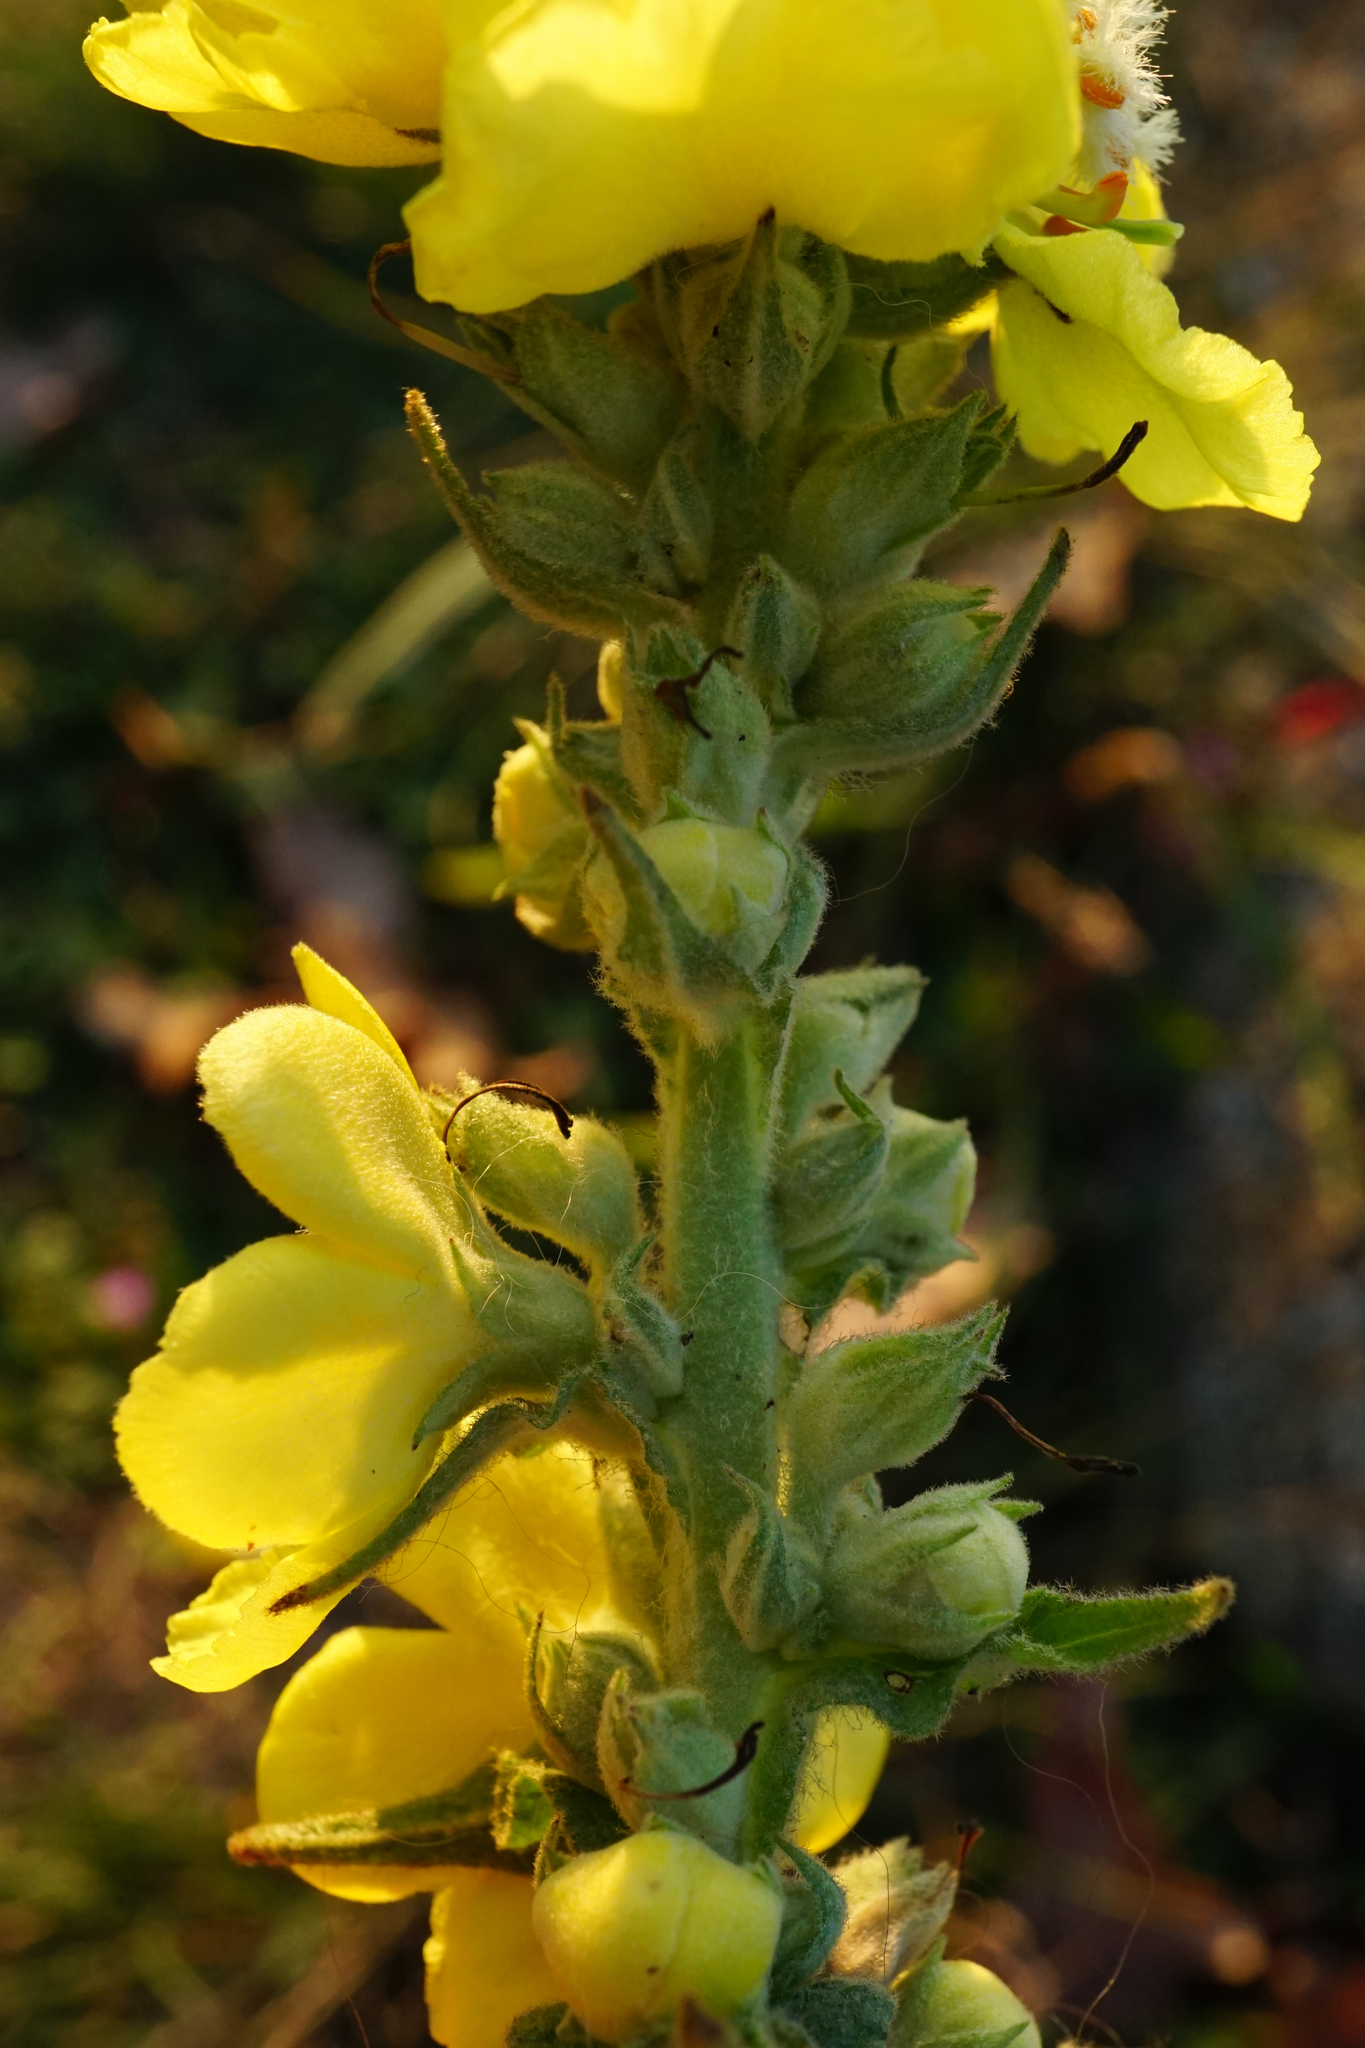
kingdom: Plantae
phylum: Tracheophyta
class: Magnoliopsida
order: Lamiales
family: Scrophulariaceae
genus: Verbascum
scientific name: Verbascum densiflorum
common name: Dense-flowered mullein
